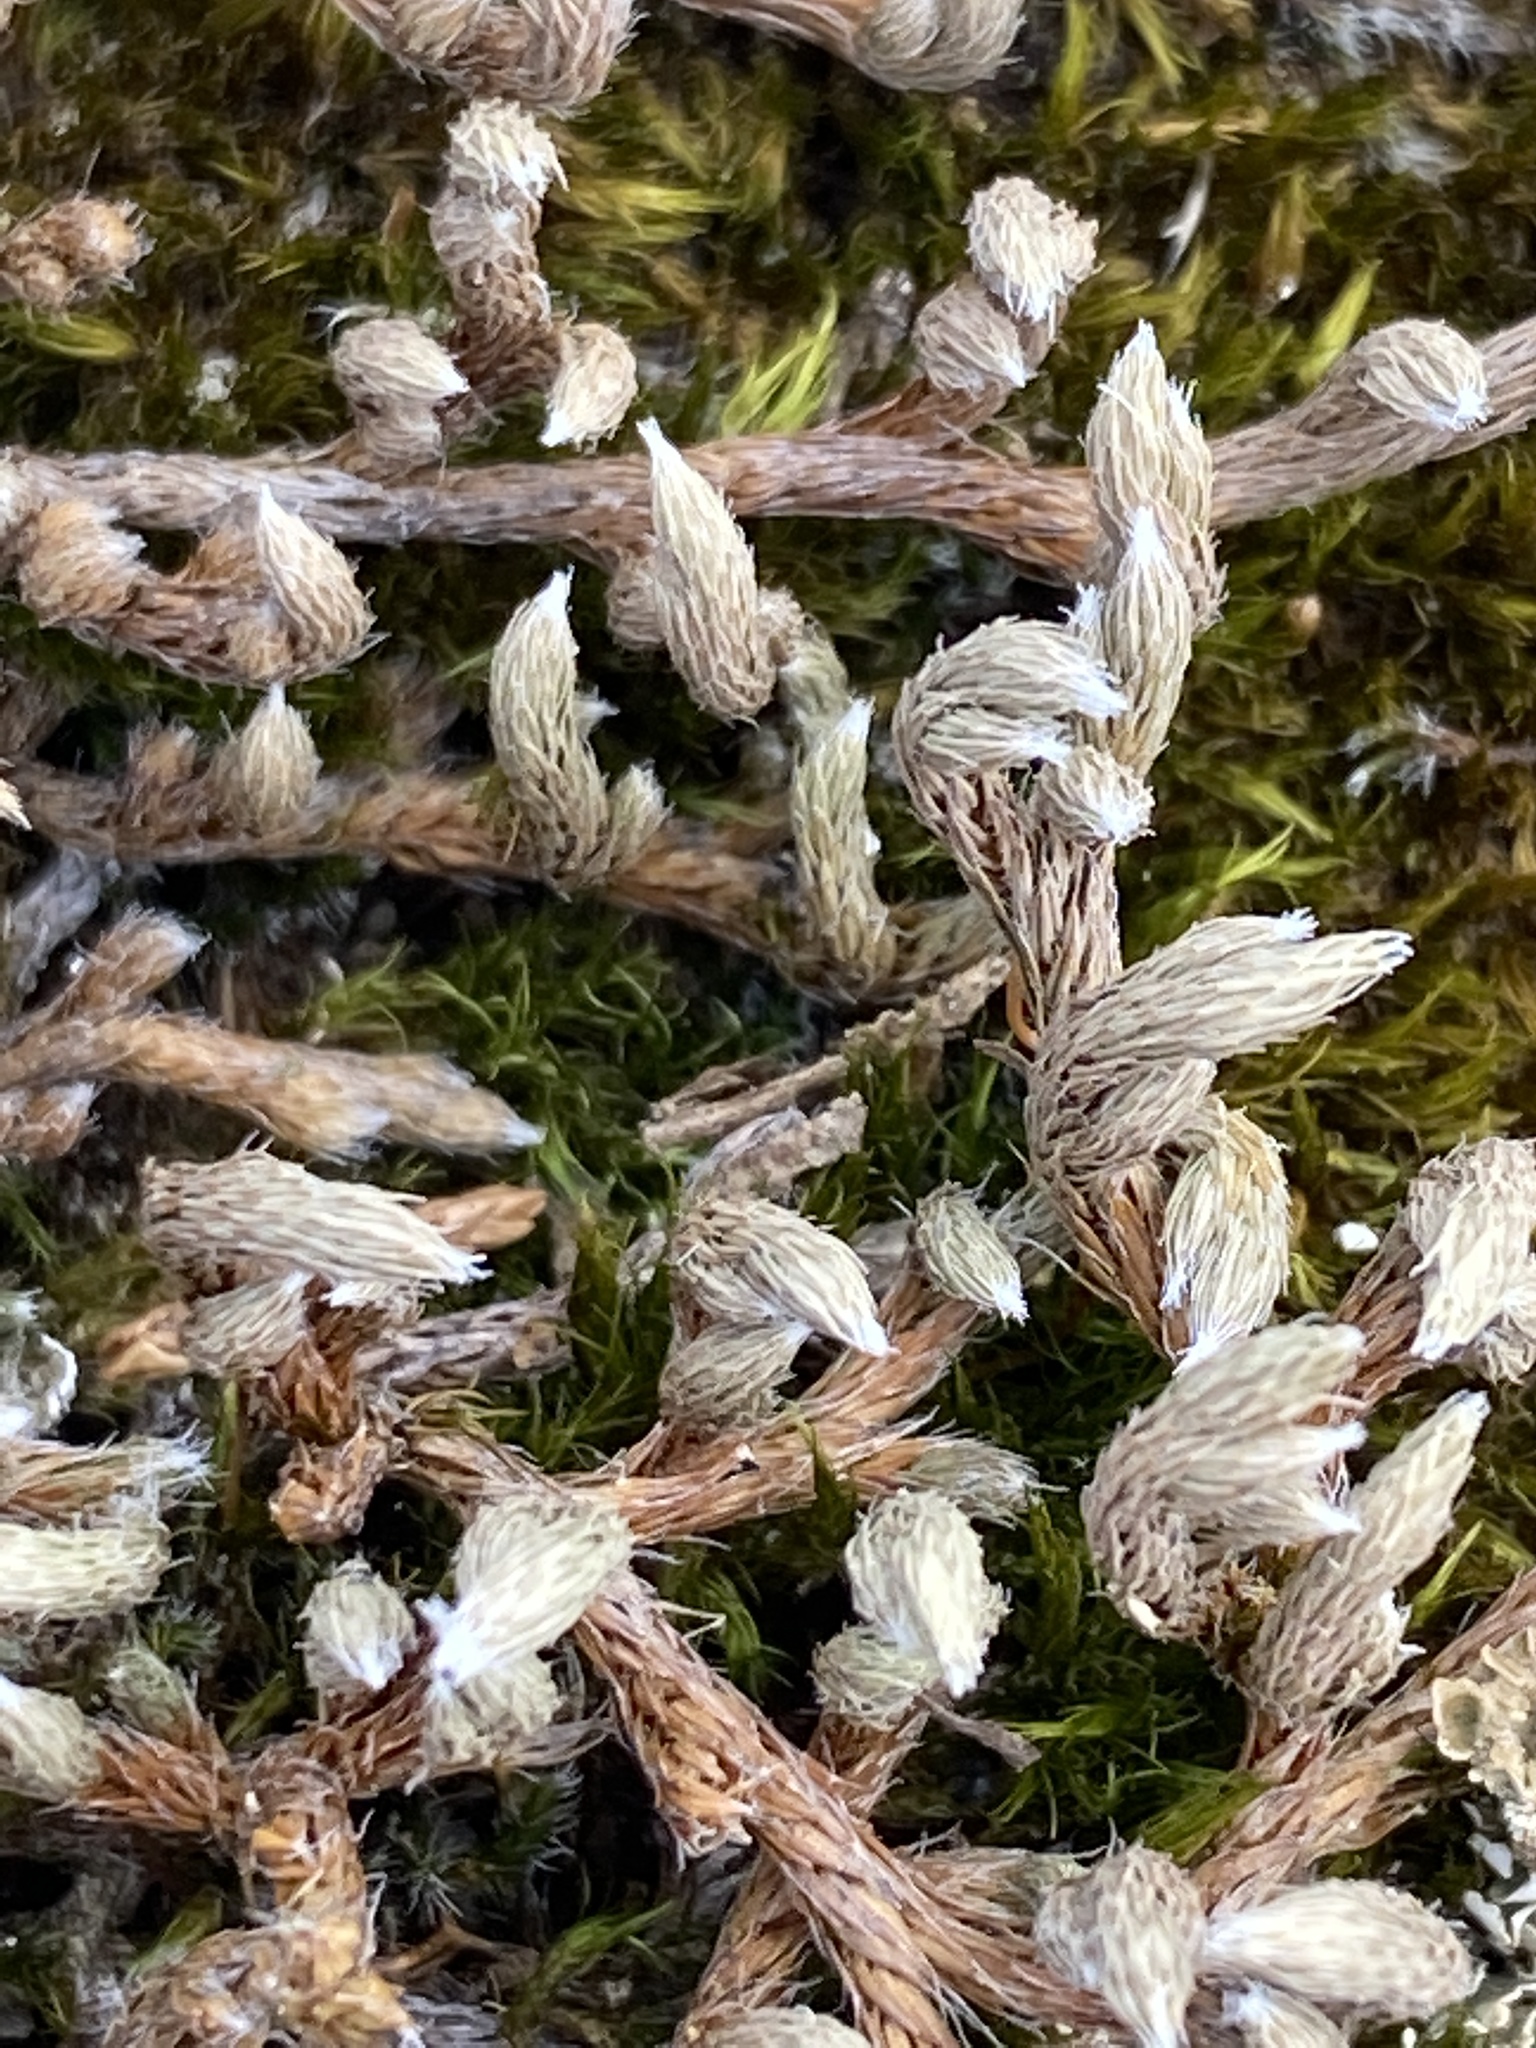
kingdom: Plantae
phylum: Tracheophyta
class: Lycopodiopsida
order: Selaginellales
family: Selaginellaceae
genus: Selaginella
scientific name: Selaginella rupestris
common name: Dwarf spikemoss
